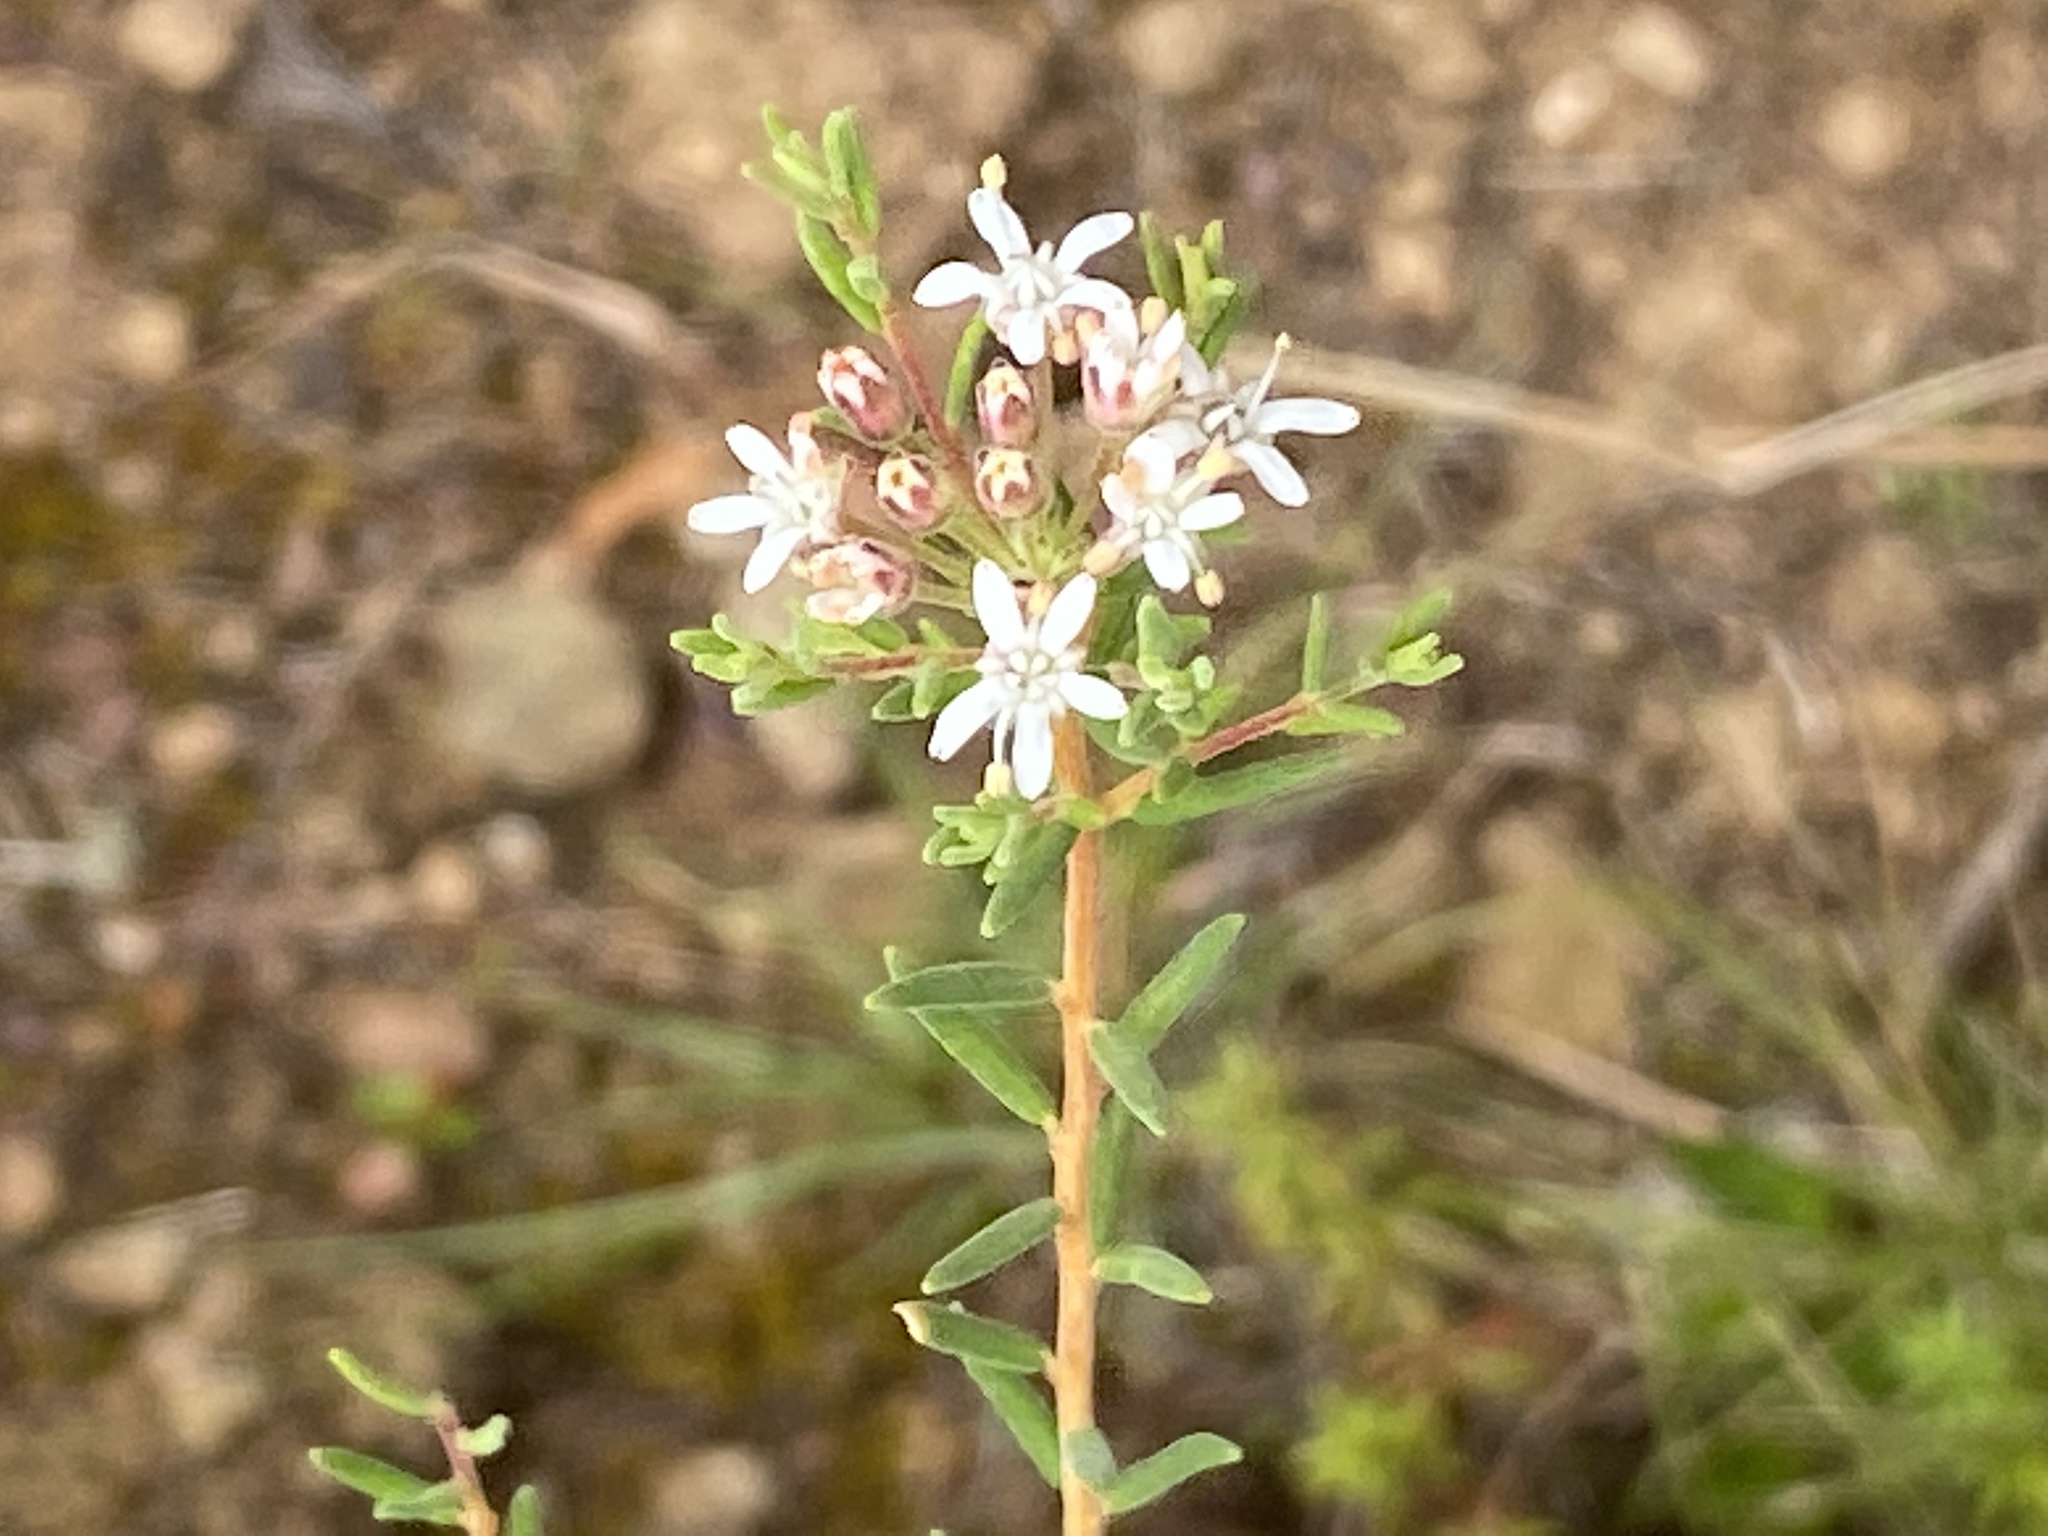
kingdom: Plantae
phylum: Tracheophyta
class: Magnoliopsida
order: Sapindales
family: Rutaceae
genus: Agathosma
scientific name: Agathosma mundtii
